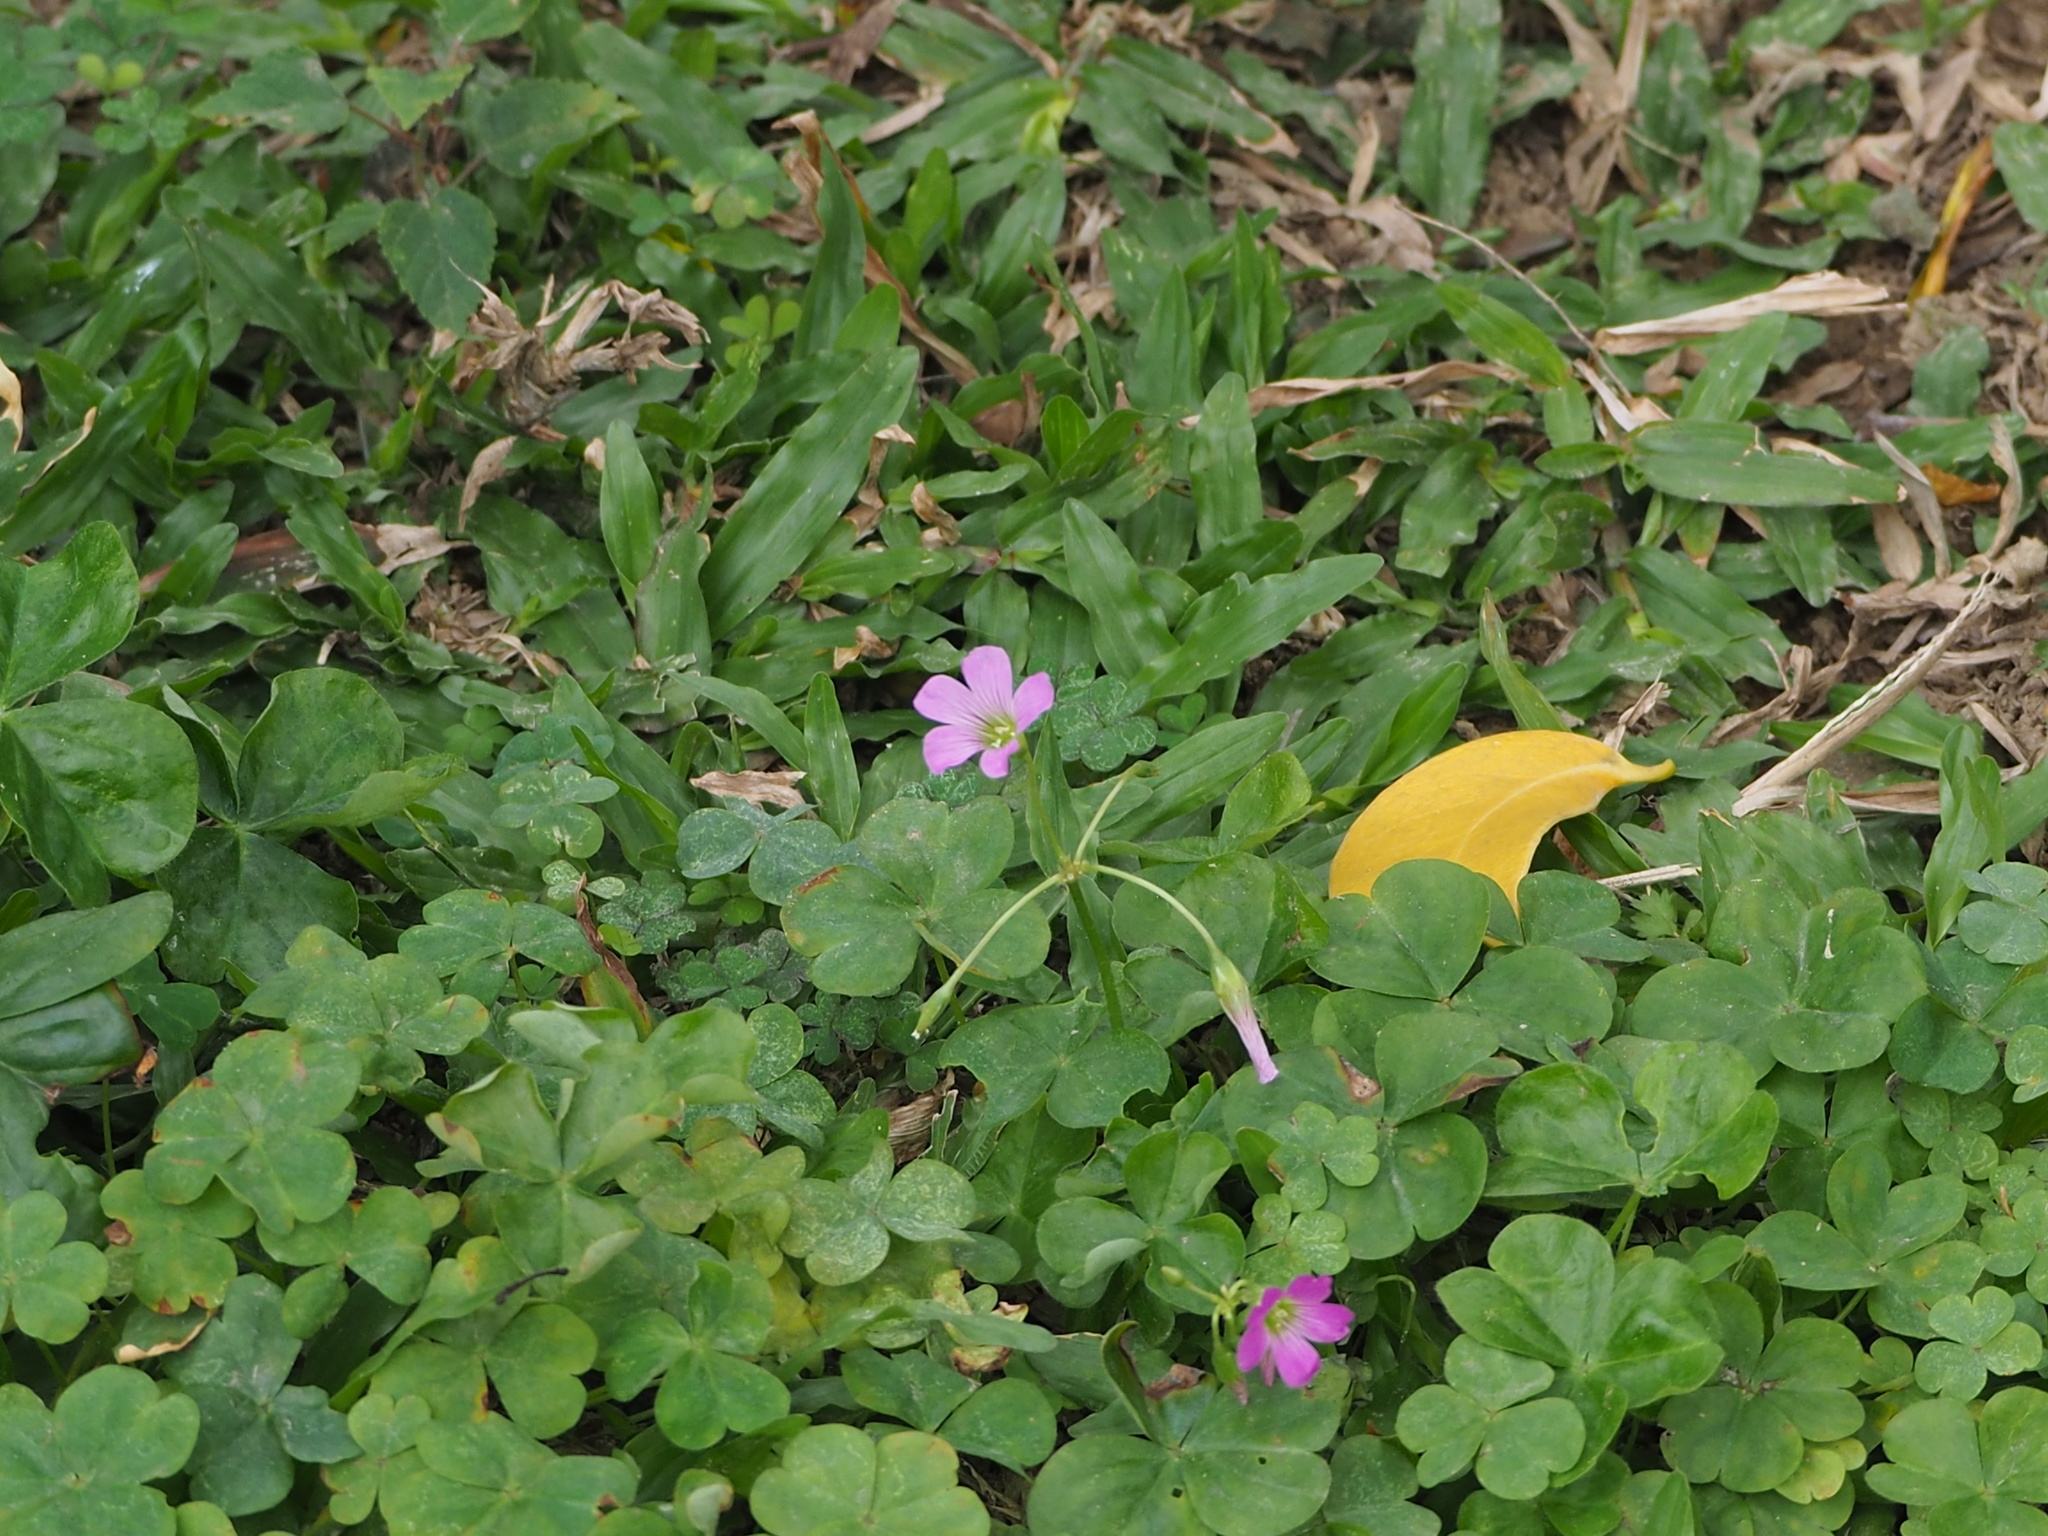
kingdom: Plantae
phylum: Tracheophyta
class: Magnoliopsida
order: Oxalidales
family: Oxalidaceae
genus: Oxalis
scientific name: Oxalis debilis
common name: Large-flowered pink-sorrel
